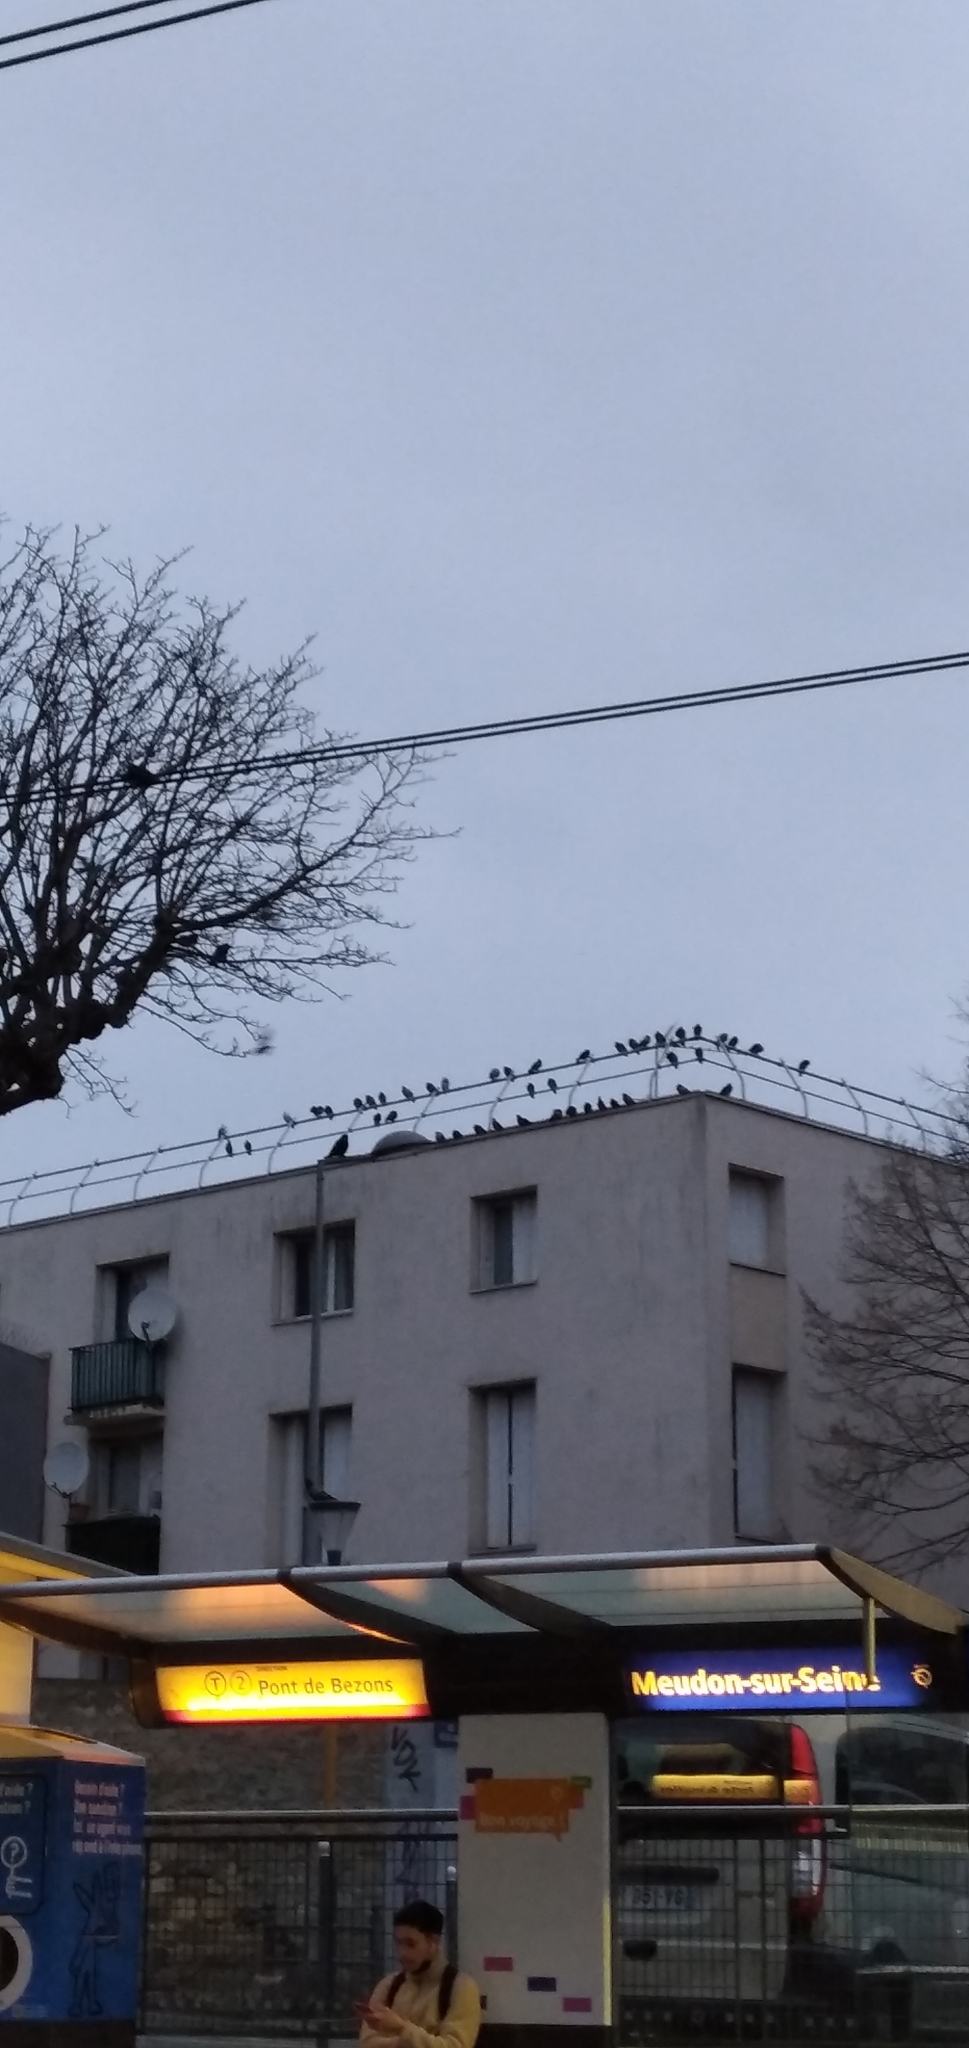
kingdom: Animalia
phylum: Chordata
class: Aves
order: Columbiformes
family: Columbidae
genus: Columba
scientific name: Columba livia
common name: Rock pigeon
